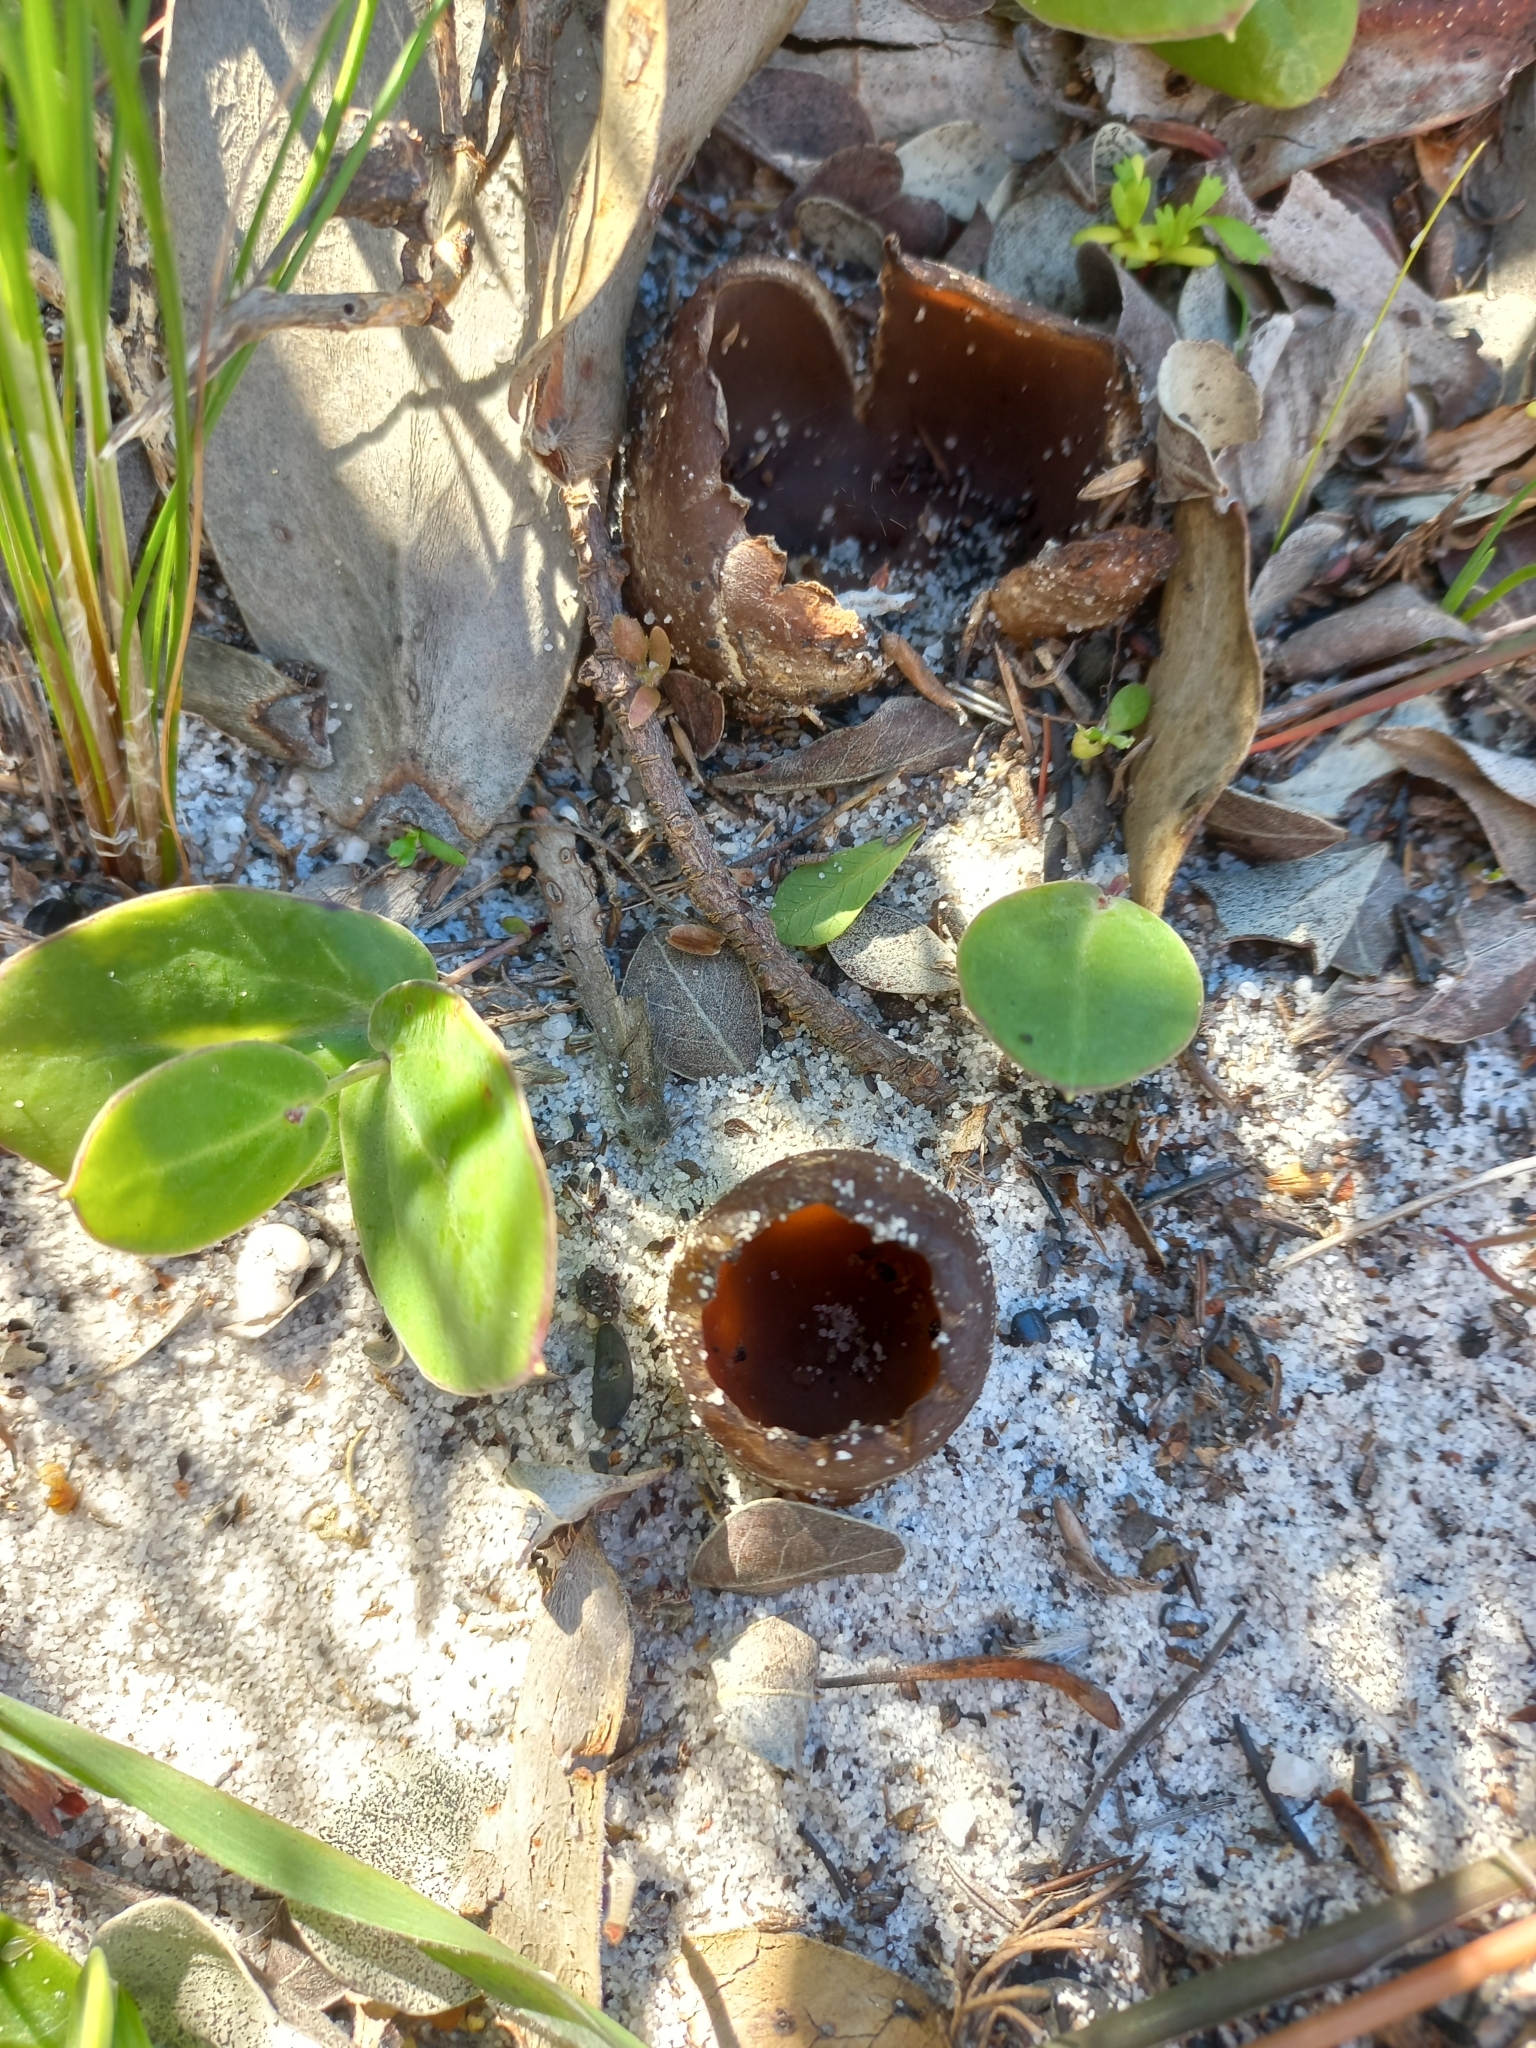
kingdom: Fungi
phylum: Ascomycota
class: Pezizomycetes
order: Pezizales
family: Pezizaceae
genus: Peziza
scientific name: Peziza ammophila
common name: Dune cup
